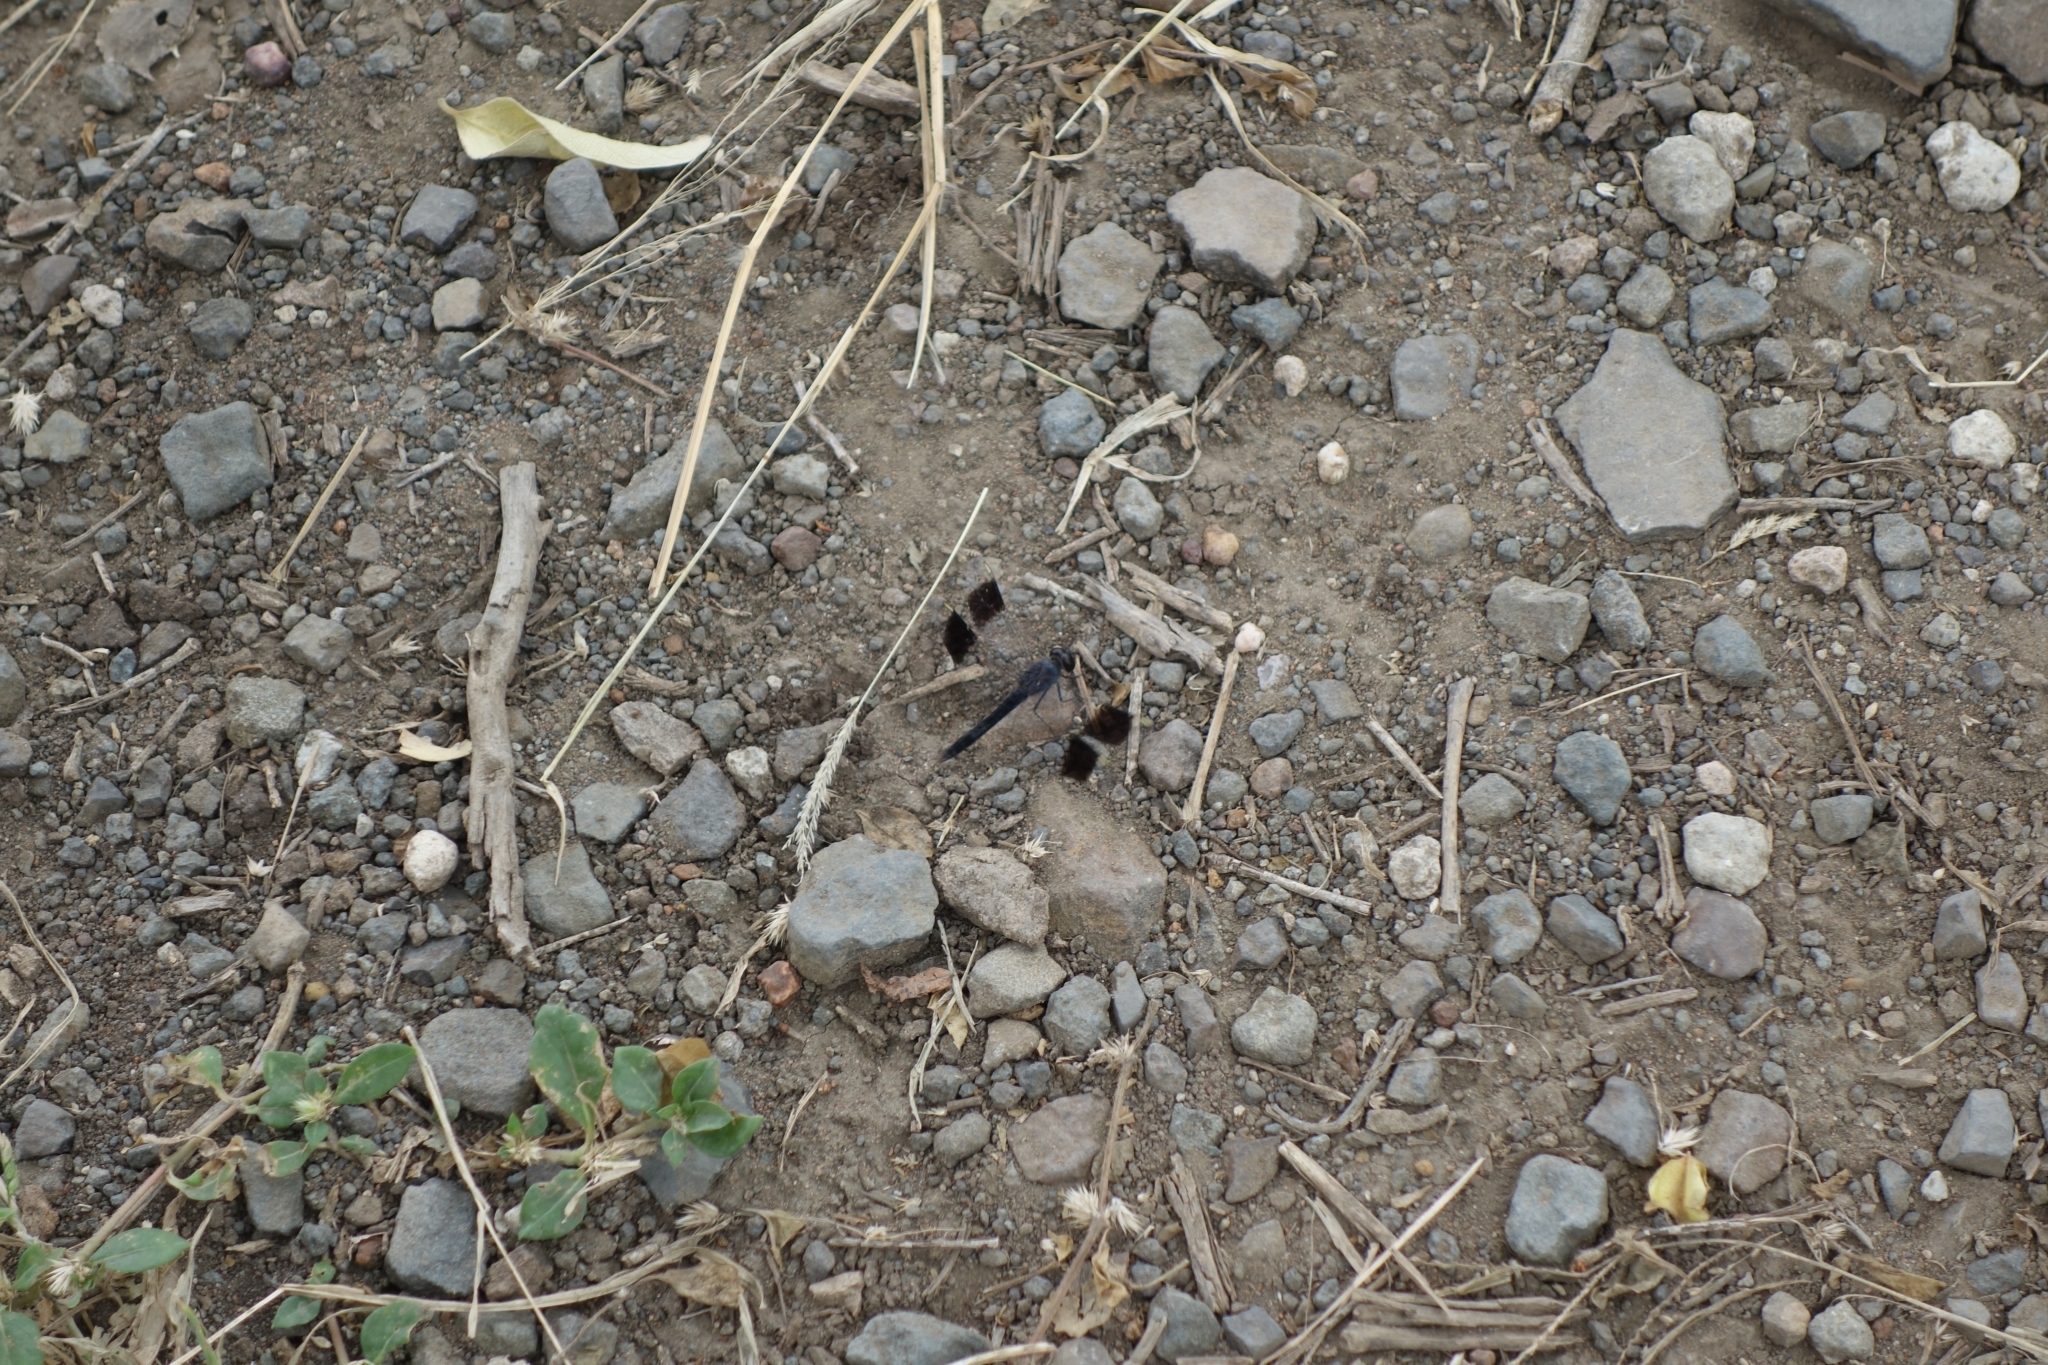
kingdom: Animalia
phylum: Arthropoda
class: Insecta
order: Odonata
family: Libellulidae
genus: Brachythemis
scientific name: Brachythemis leucosticta
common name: Banded groundling
